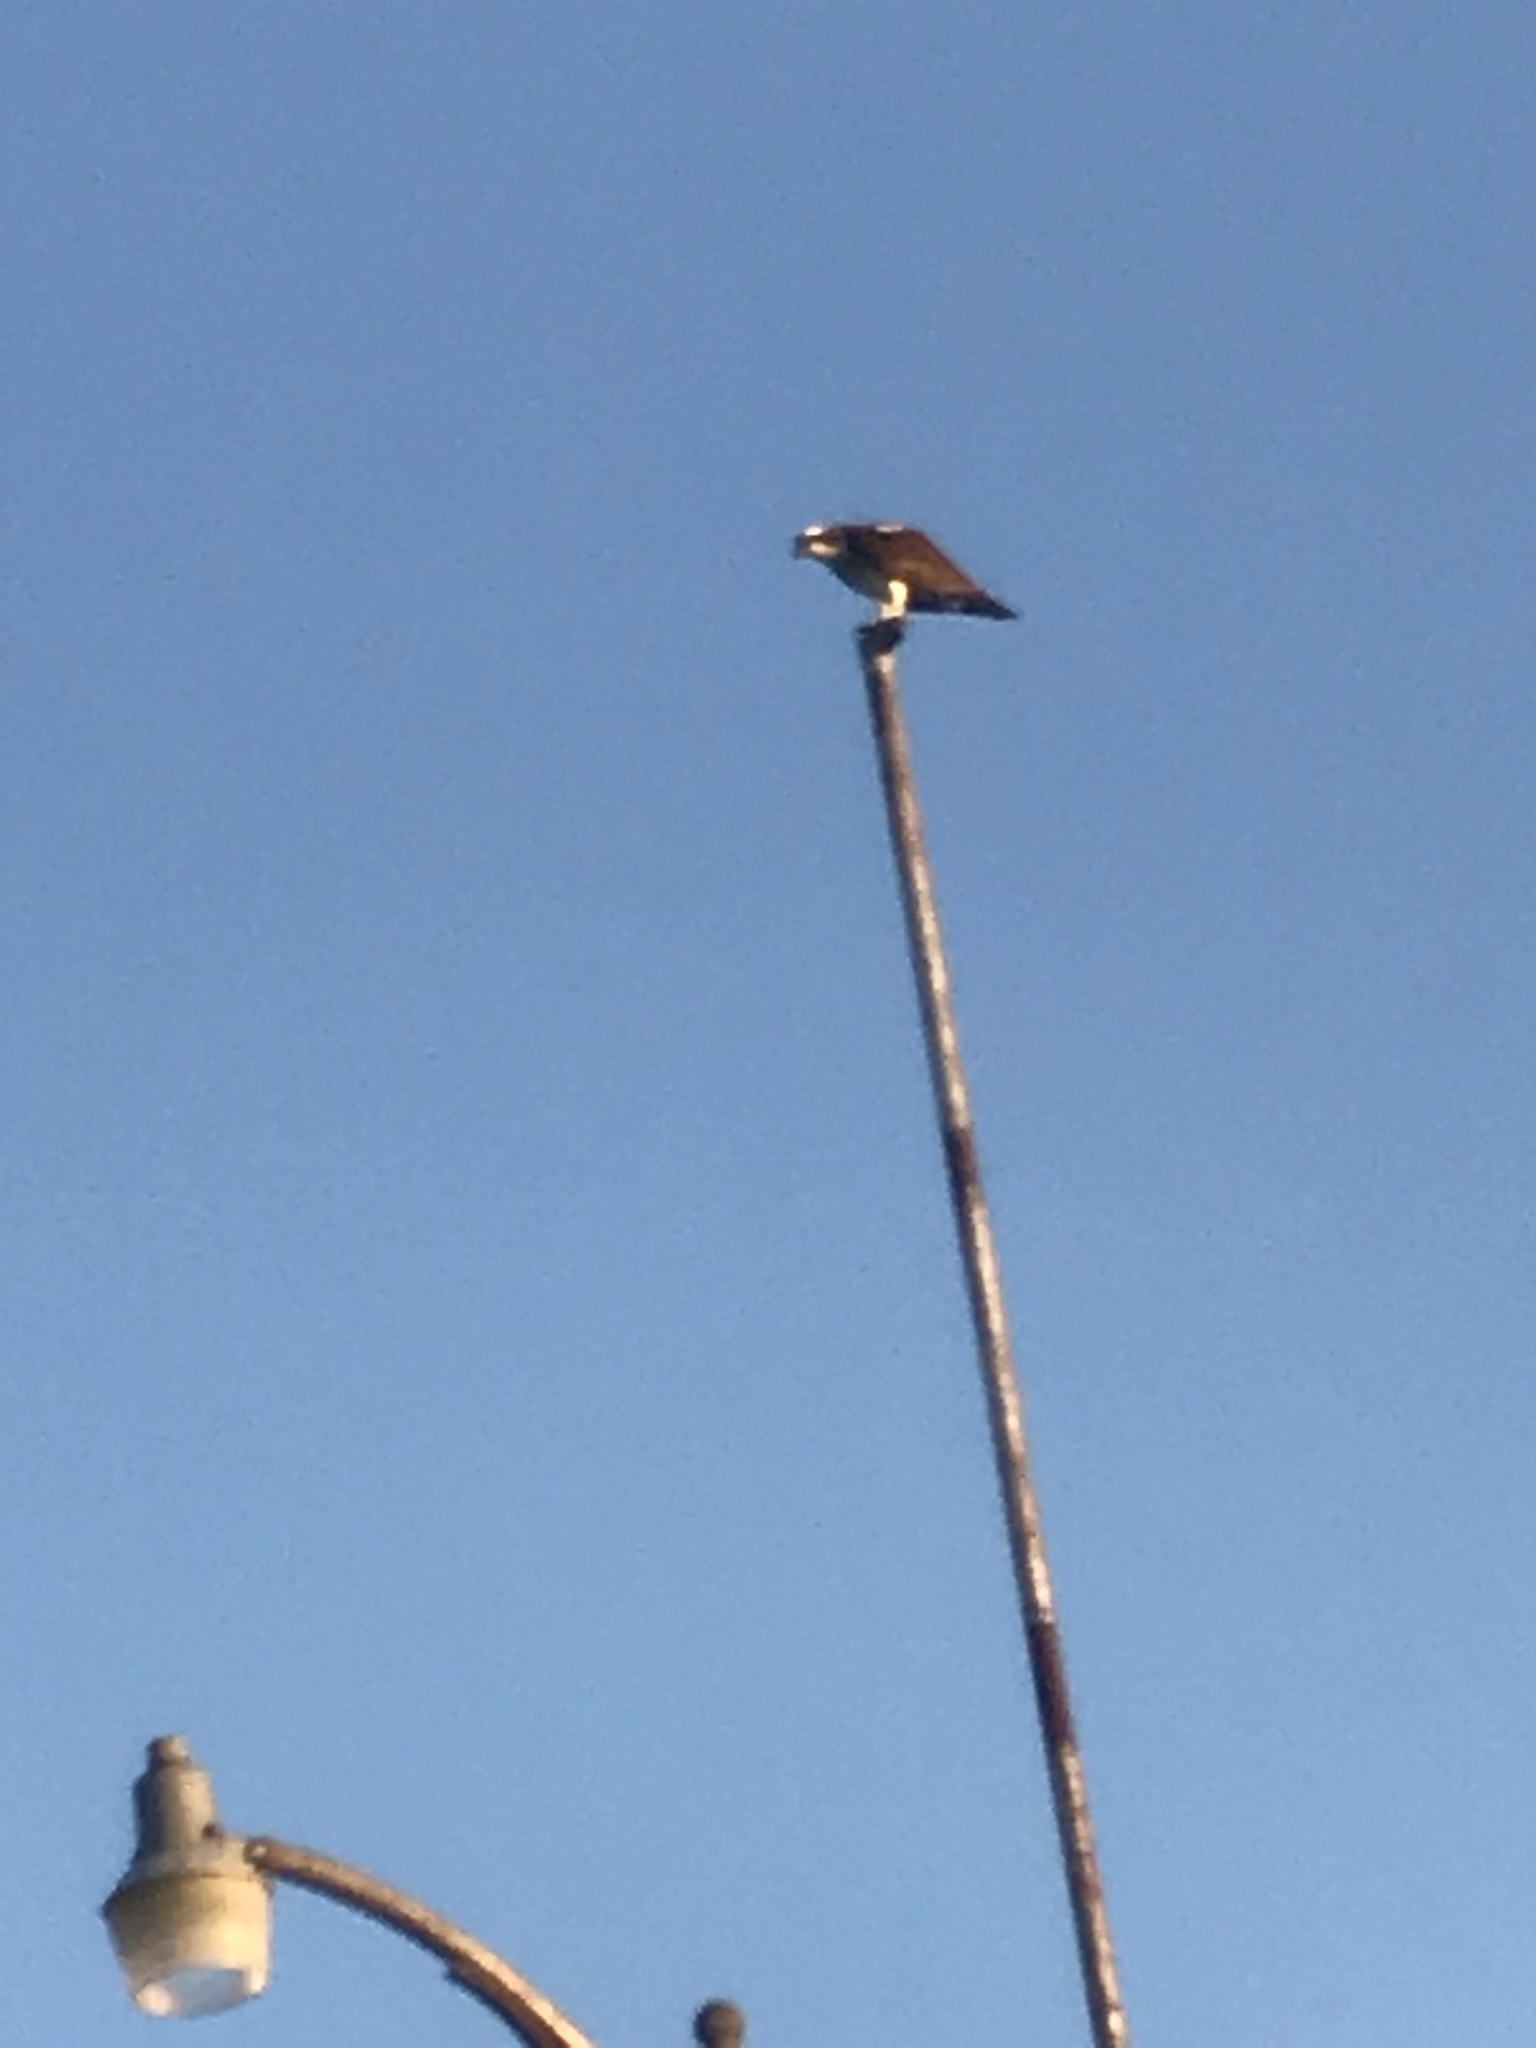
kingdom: Animalia
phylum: Chordata
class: Aves
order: Accipitriformes
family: Pandionidae
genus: Pandion
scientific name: Pandion haliaetus
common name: Osprey
